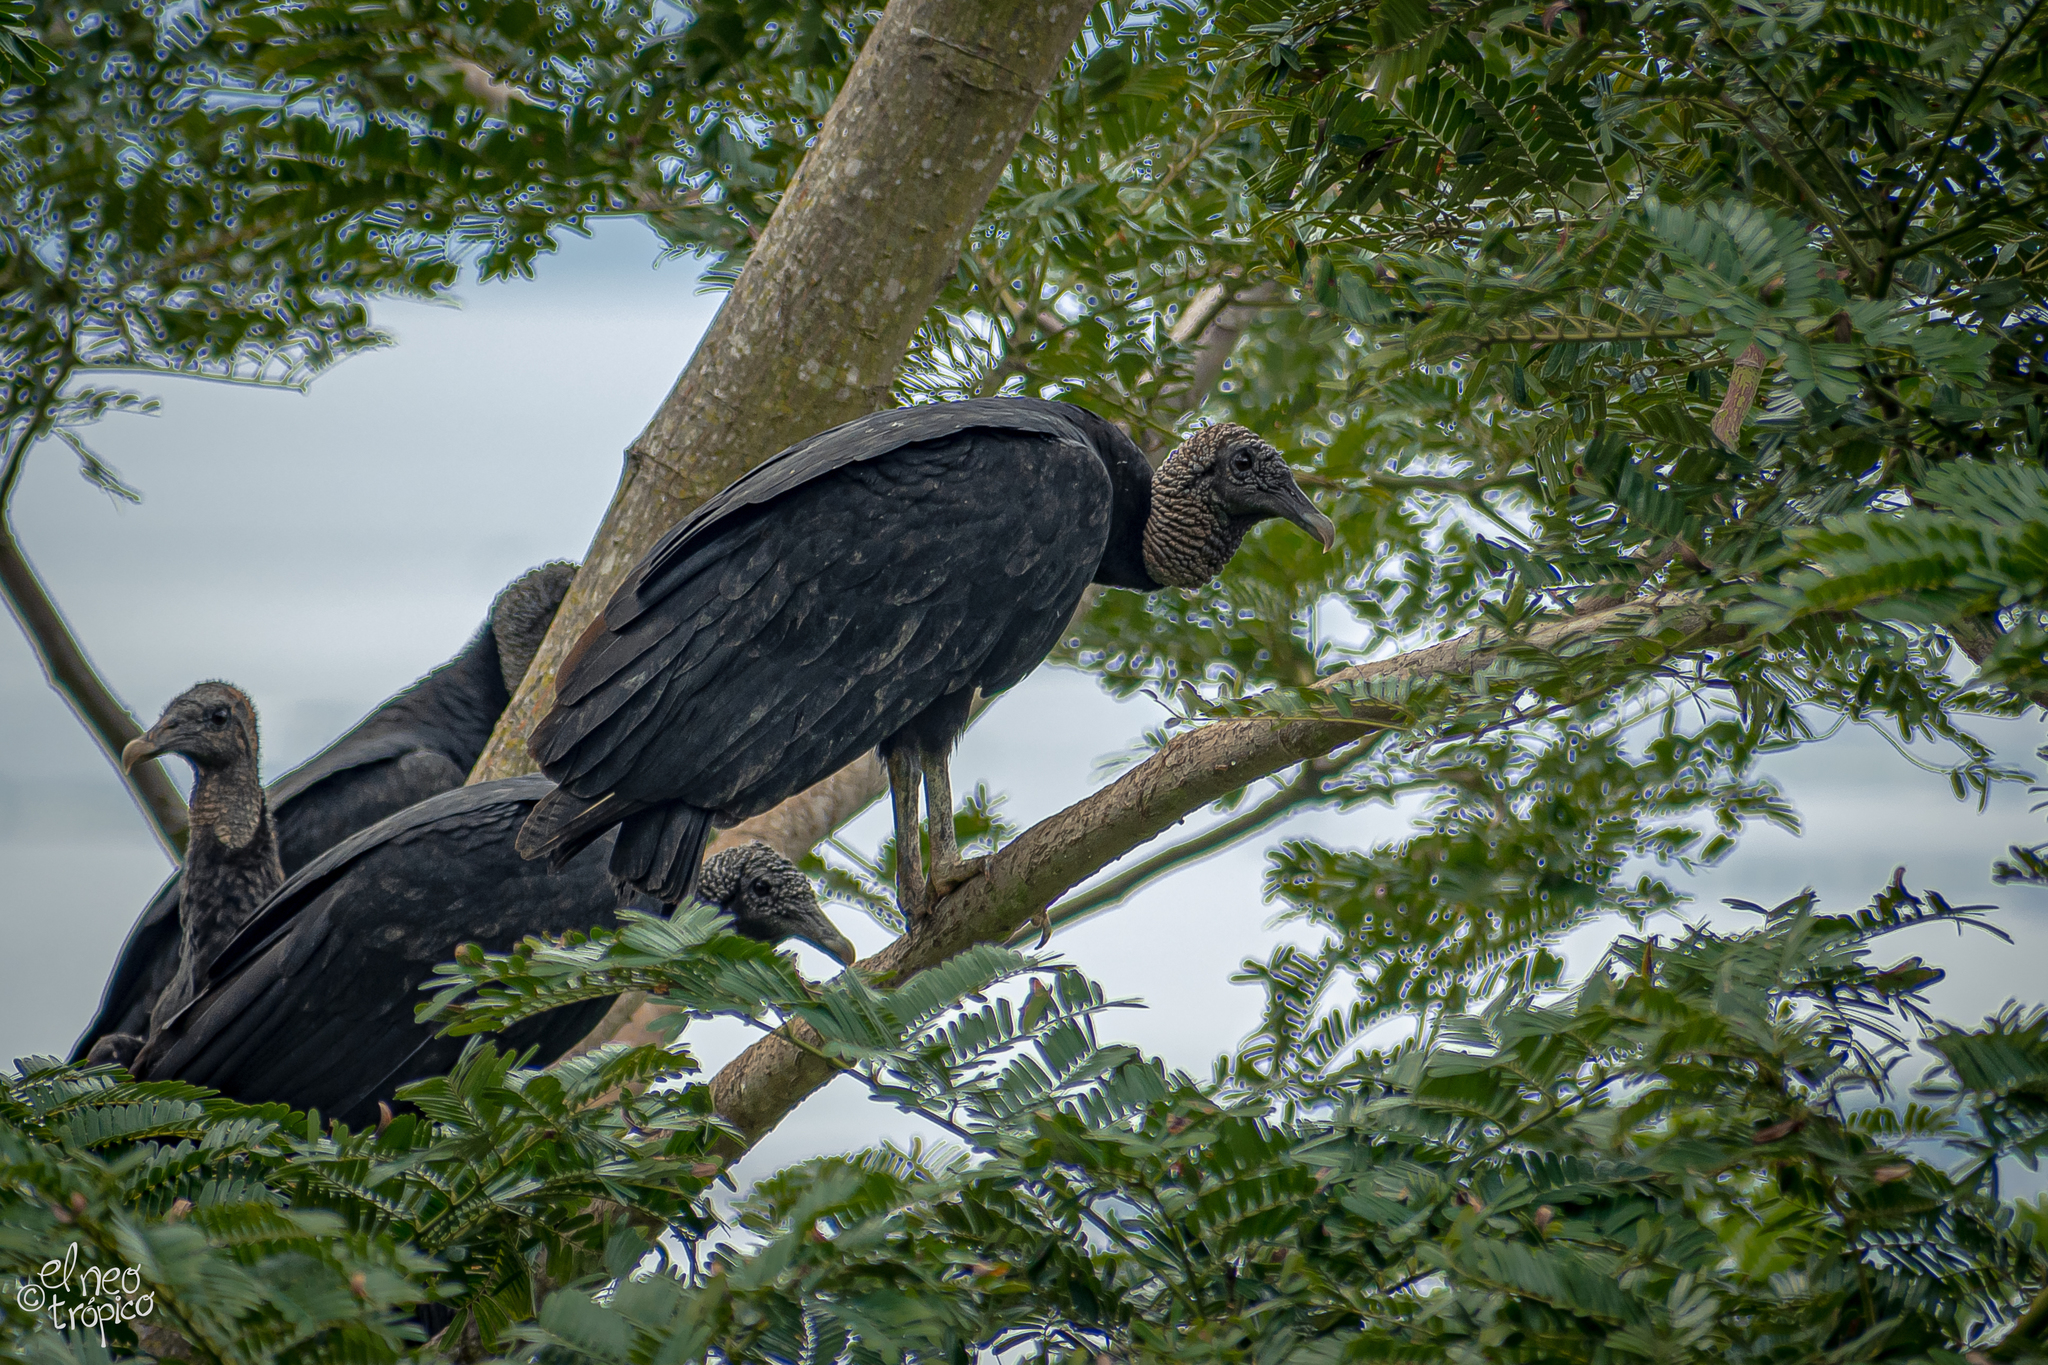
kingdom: Animalia
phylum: Chordata
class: Aves
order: Accipitriformes
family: Cathartidae
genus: Coragyps
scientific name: Coragyps atratus
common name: Black vulture
